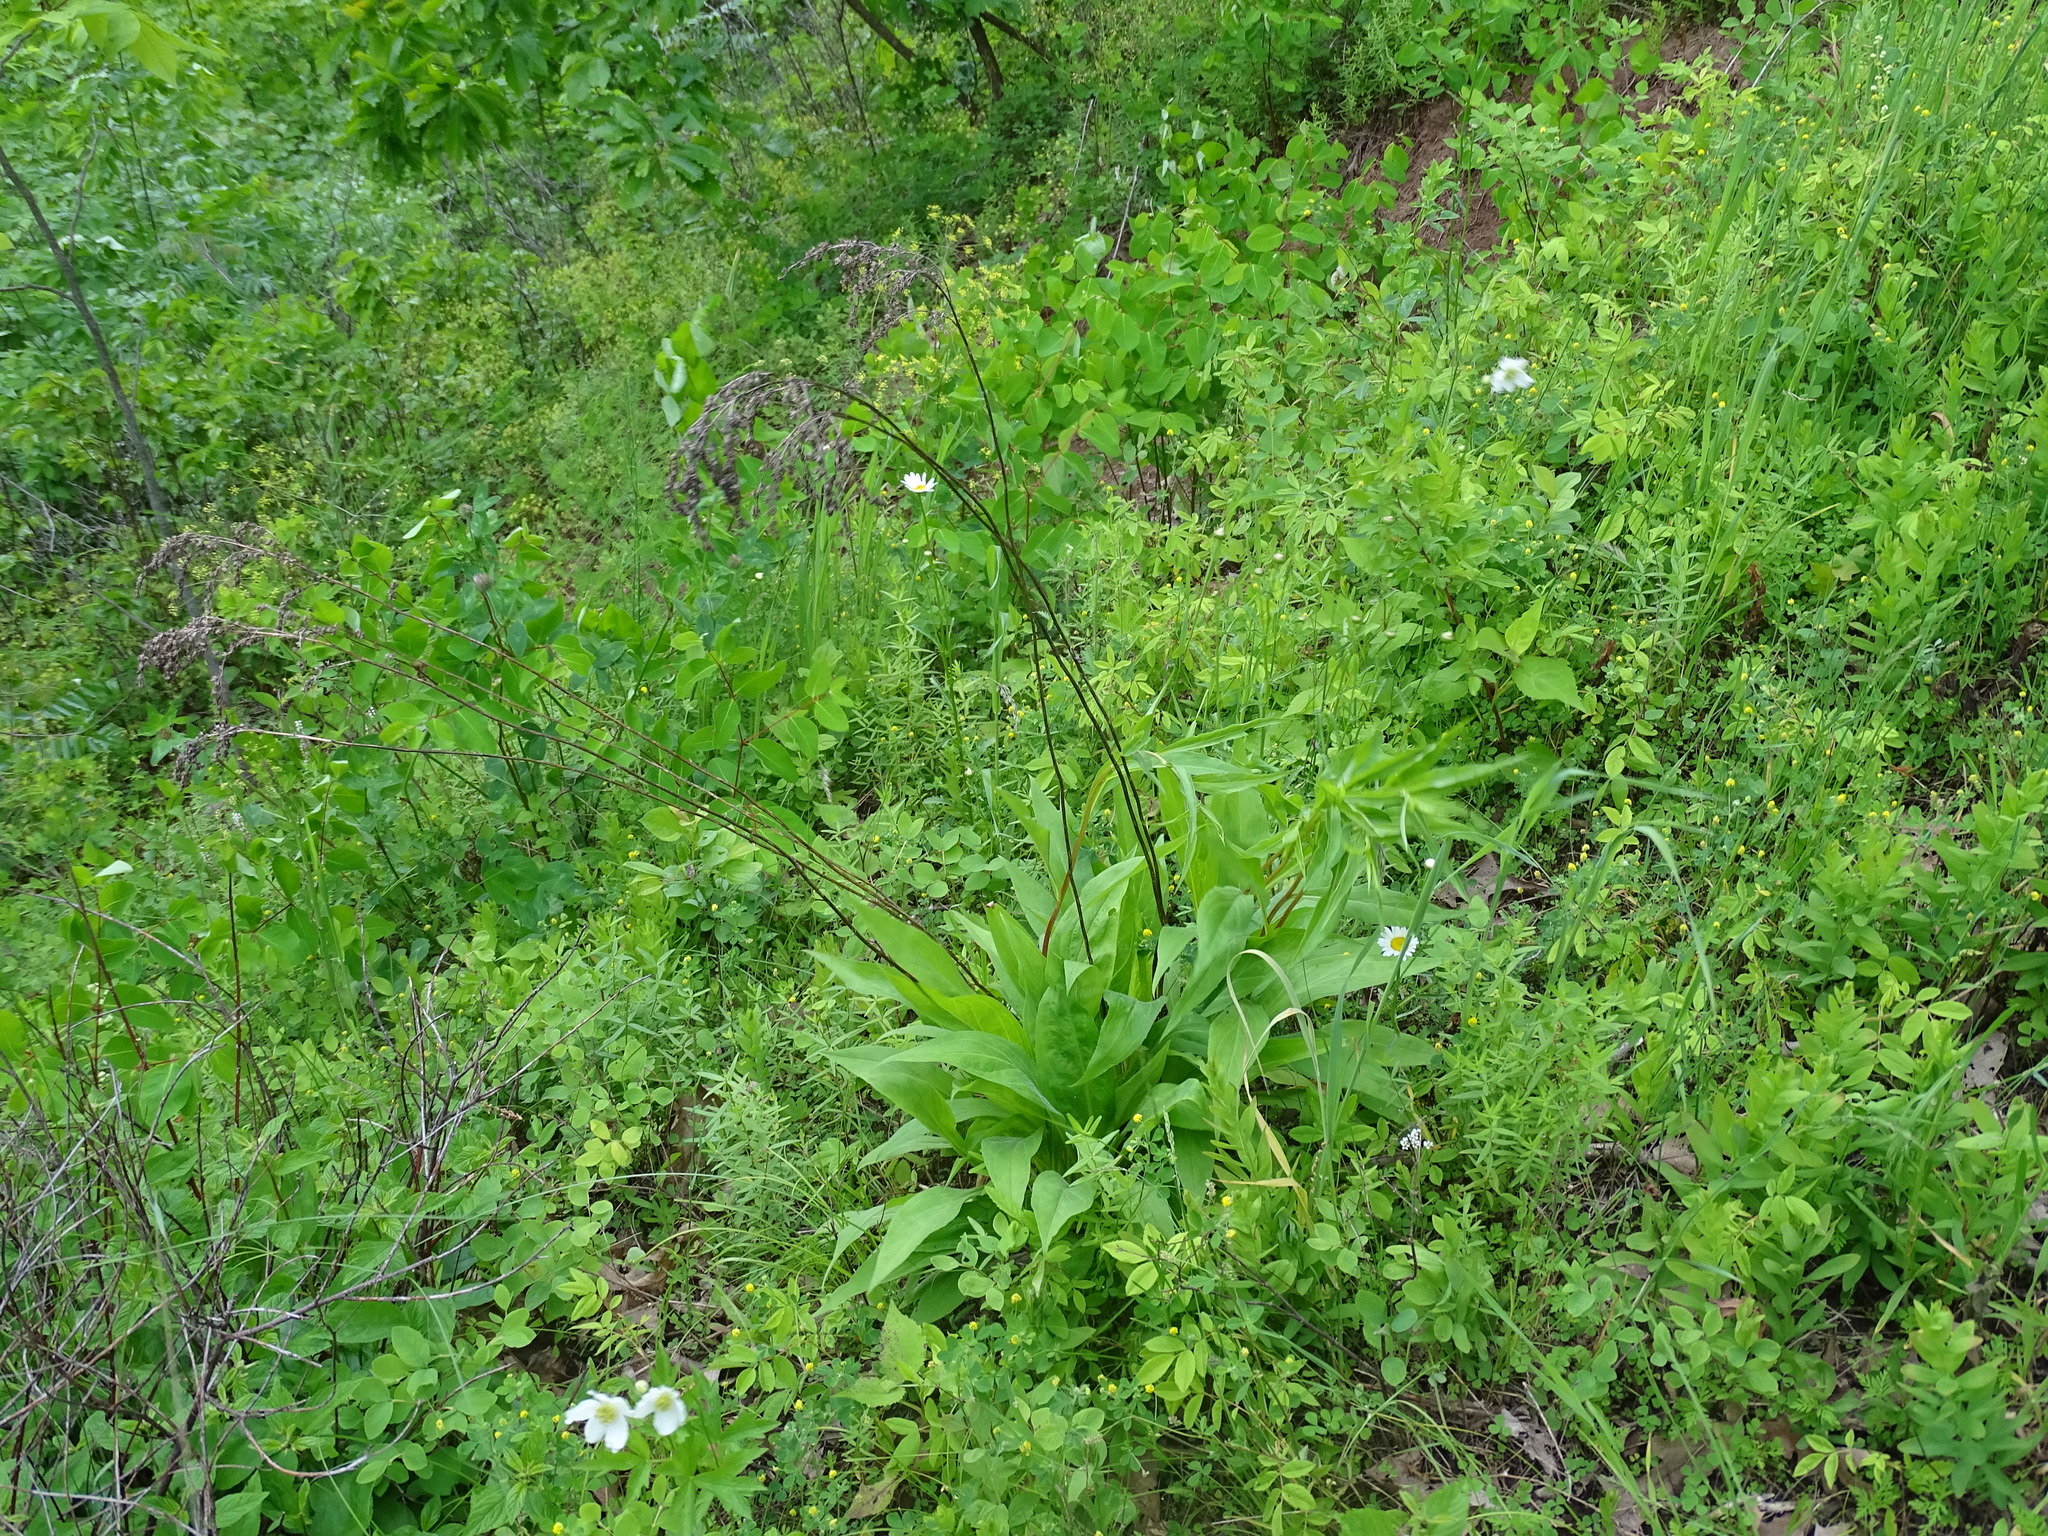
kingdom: Plantae
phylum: Tracheophyta
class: Magnoliopsida
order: Asterales
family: Asteraceae
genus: Solidago
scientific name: Solidago juncea
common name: Early goldenrod
